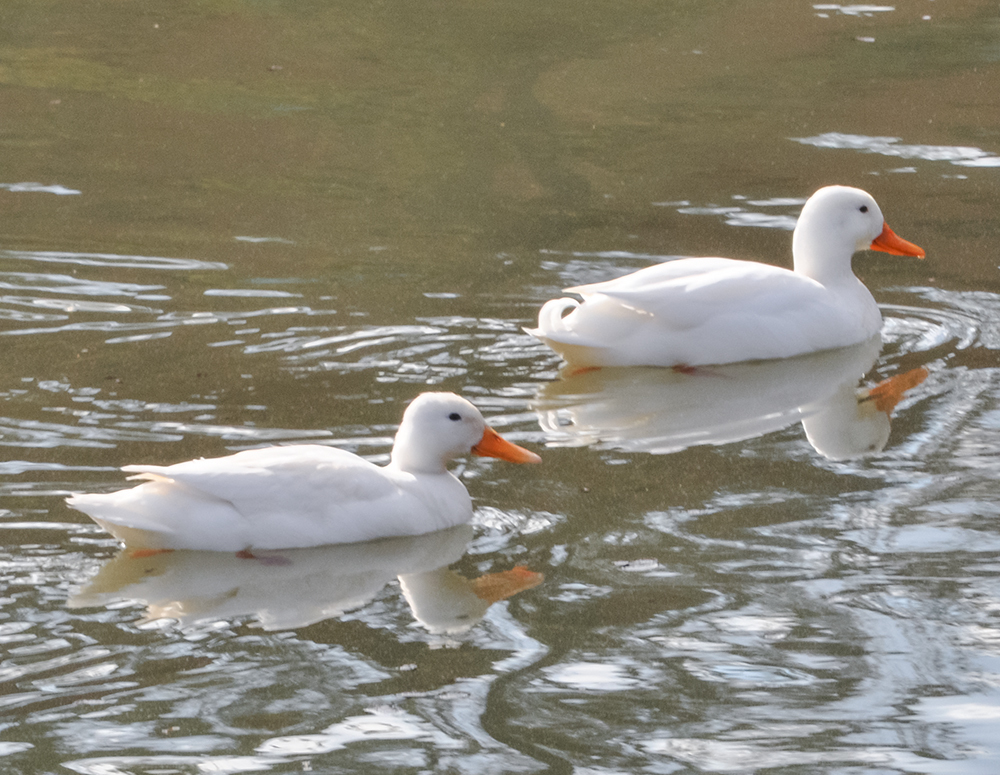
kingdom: Animalia
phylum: Chordata
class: Aves
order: Anseriformes
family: Anatidae
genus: Anas
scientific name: Anas platyrhynchos
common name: Mallard
